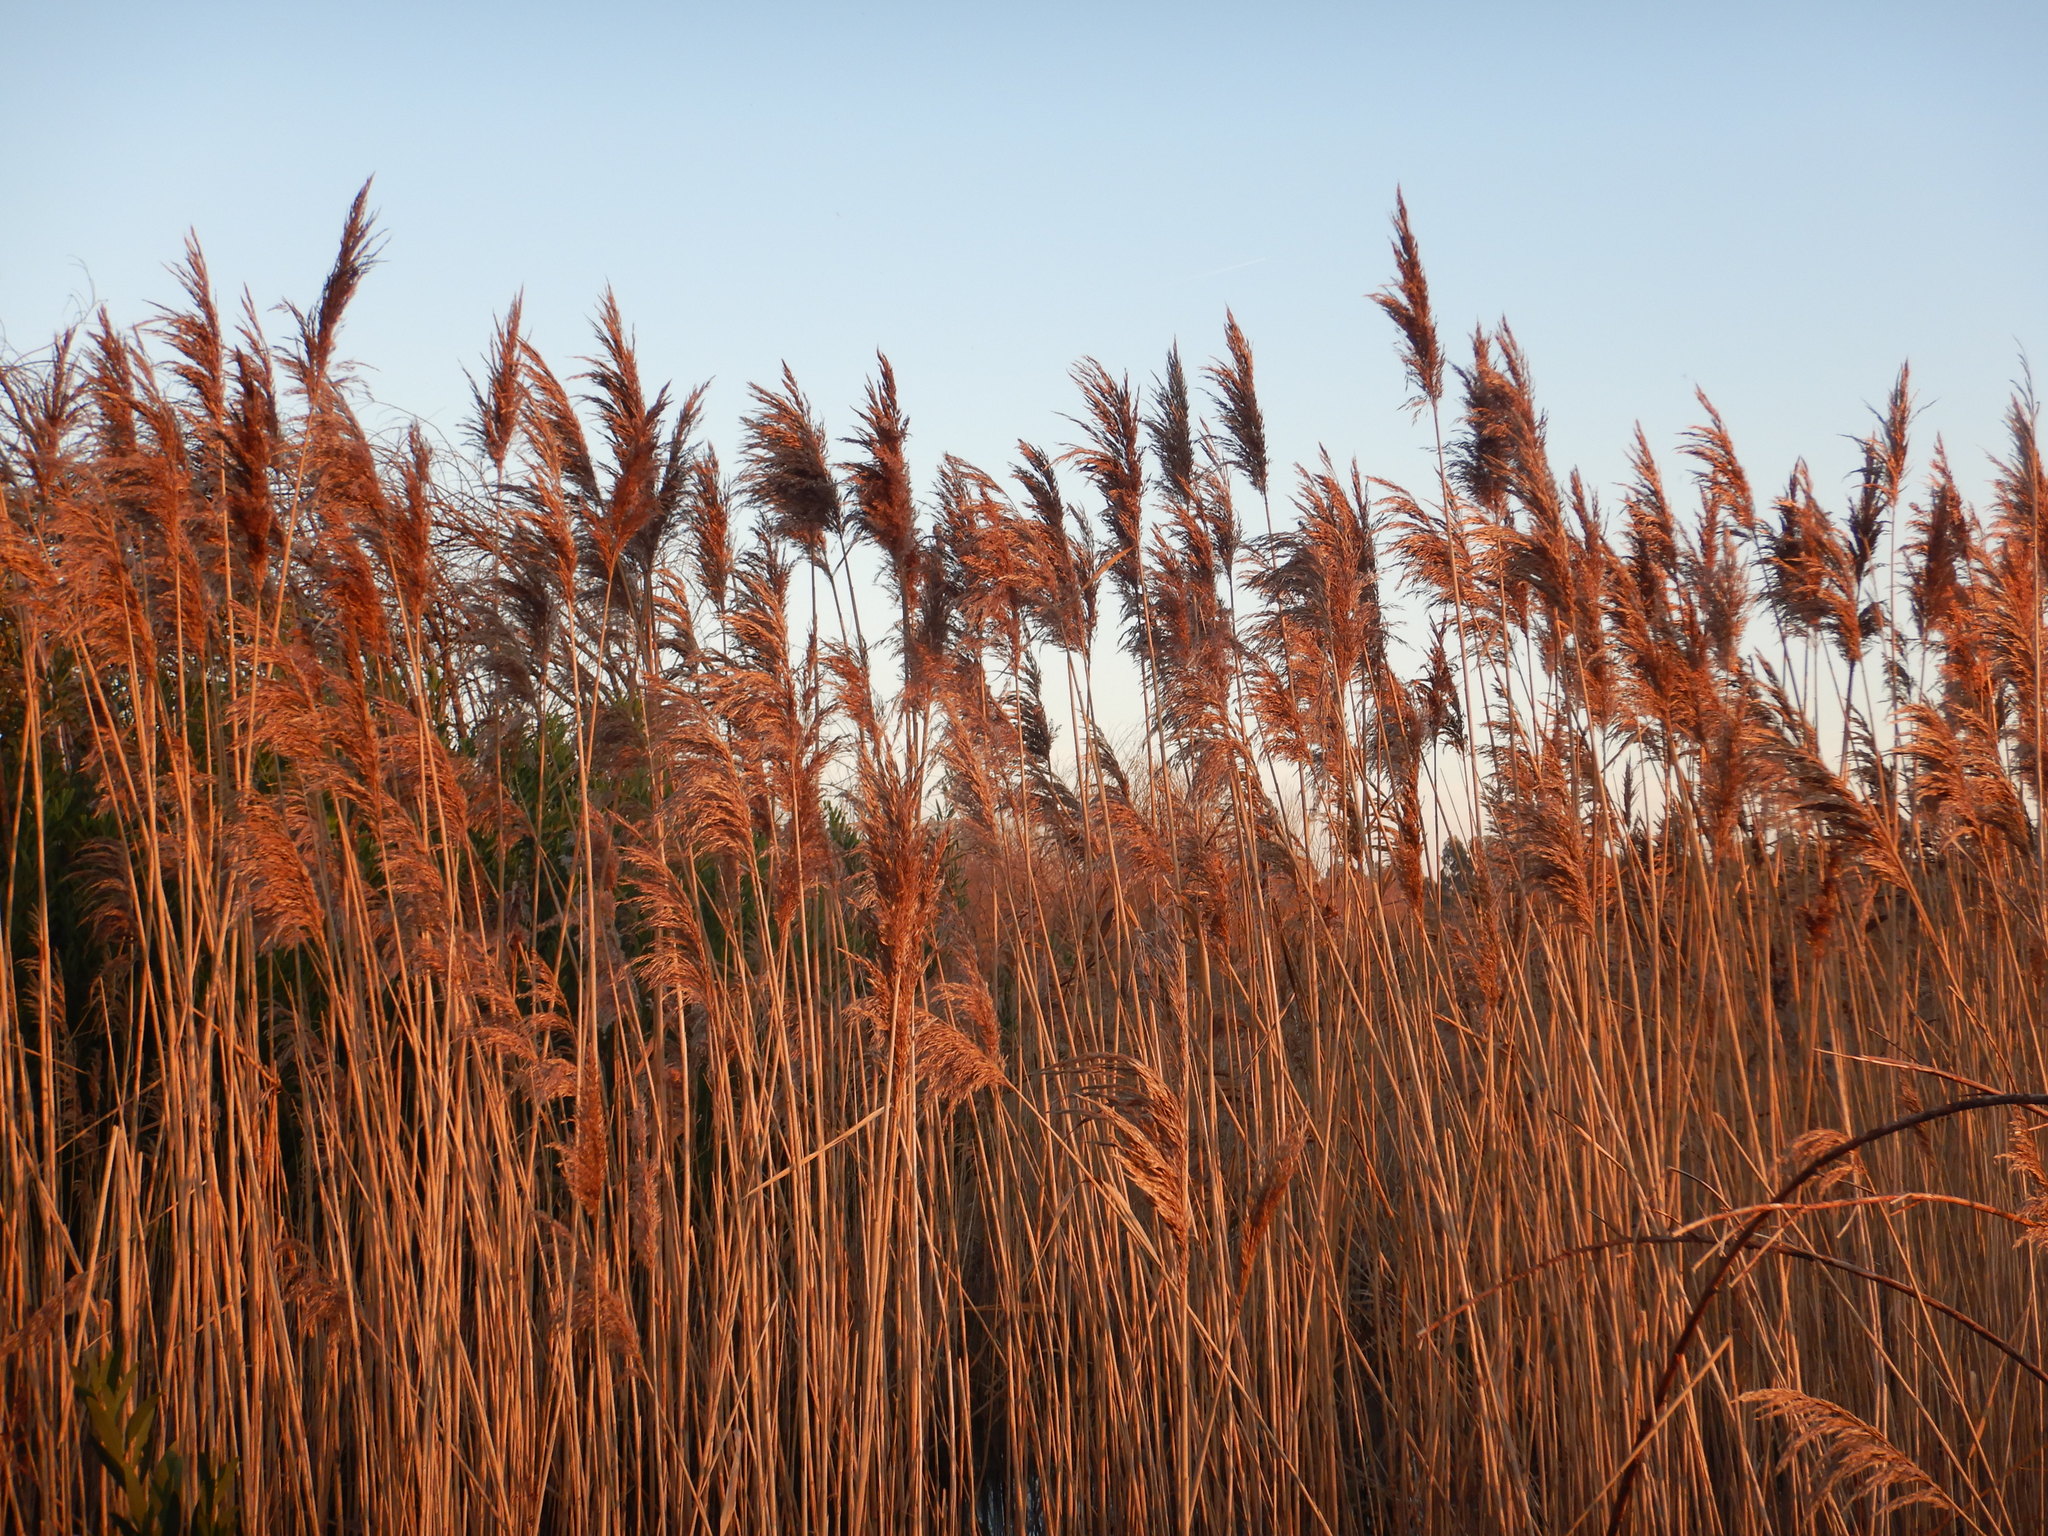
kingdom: Plantae
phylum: Tracheophyta
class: Liliopsida
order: Poales
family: Poaceae
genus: Phragmites
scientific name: Phragmites australis
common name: Common reed
